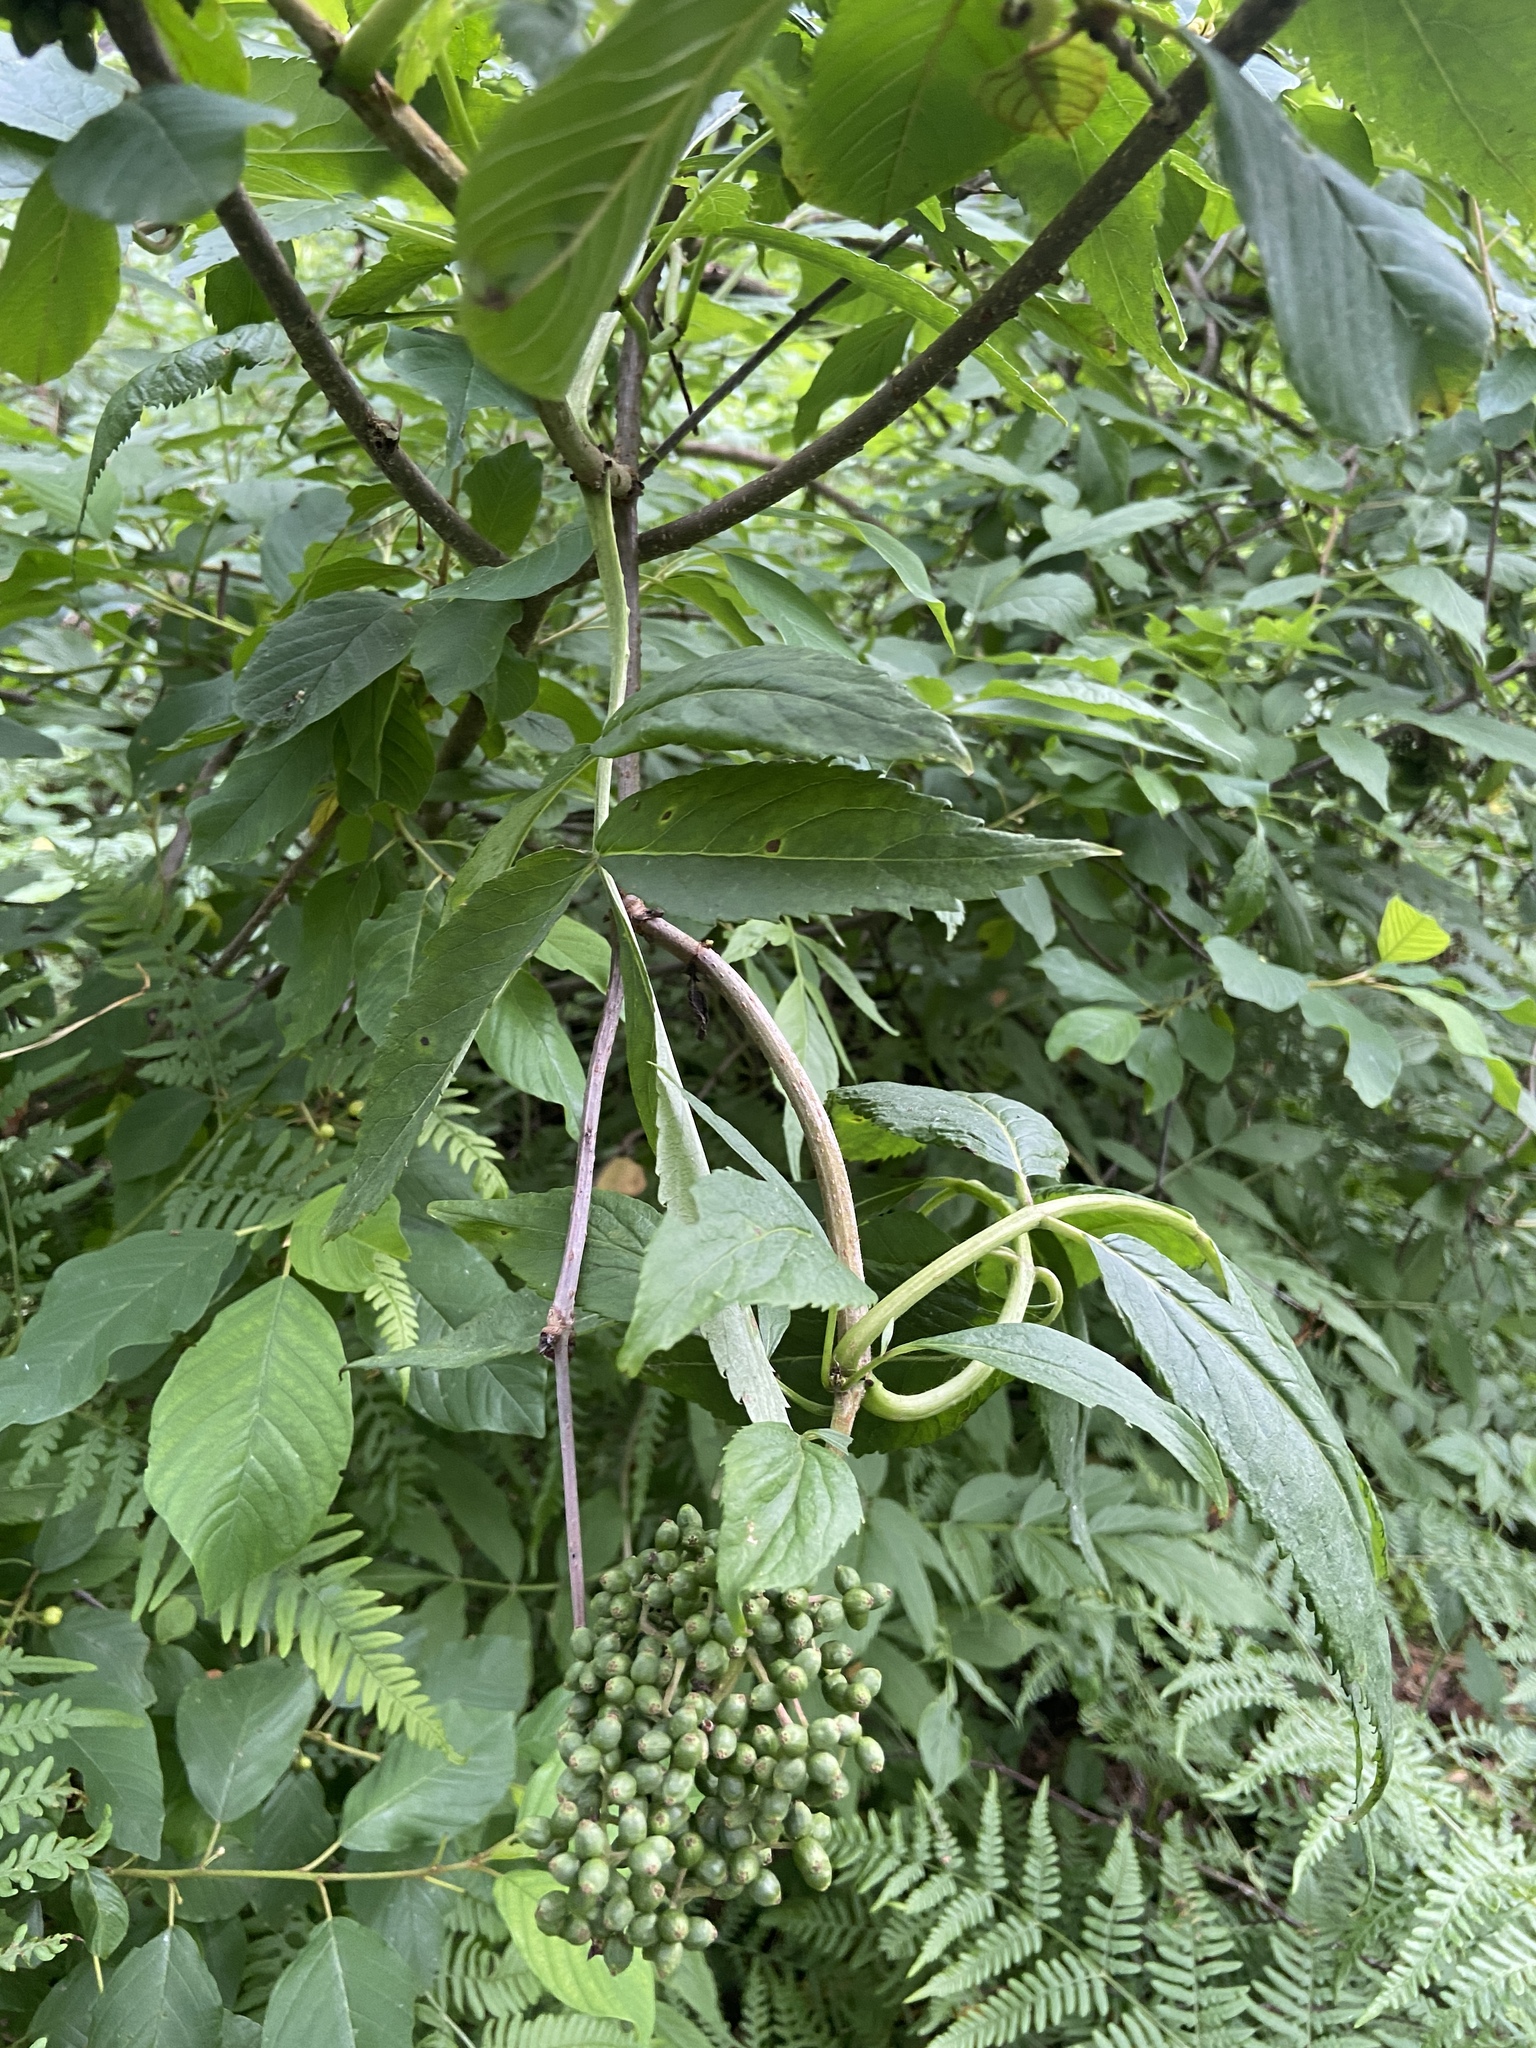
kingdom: Plantae
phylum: Tracheophyta
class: Magnoliopsida
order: Dipsacales
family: Viburnaceae
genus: Sambucus
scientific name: Sambucus racemosa
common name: Red-berried elder
